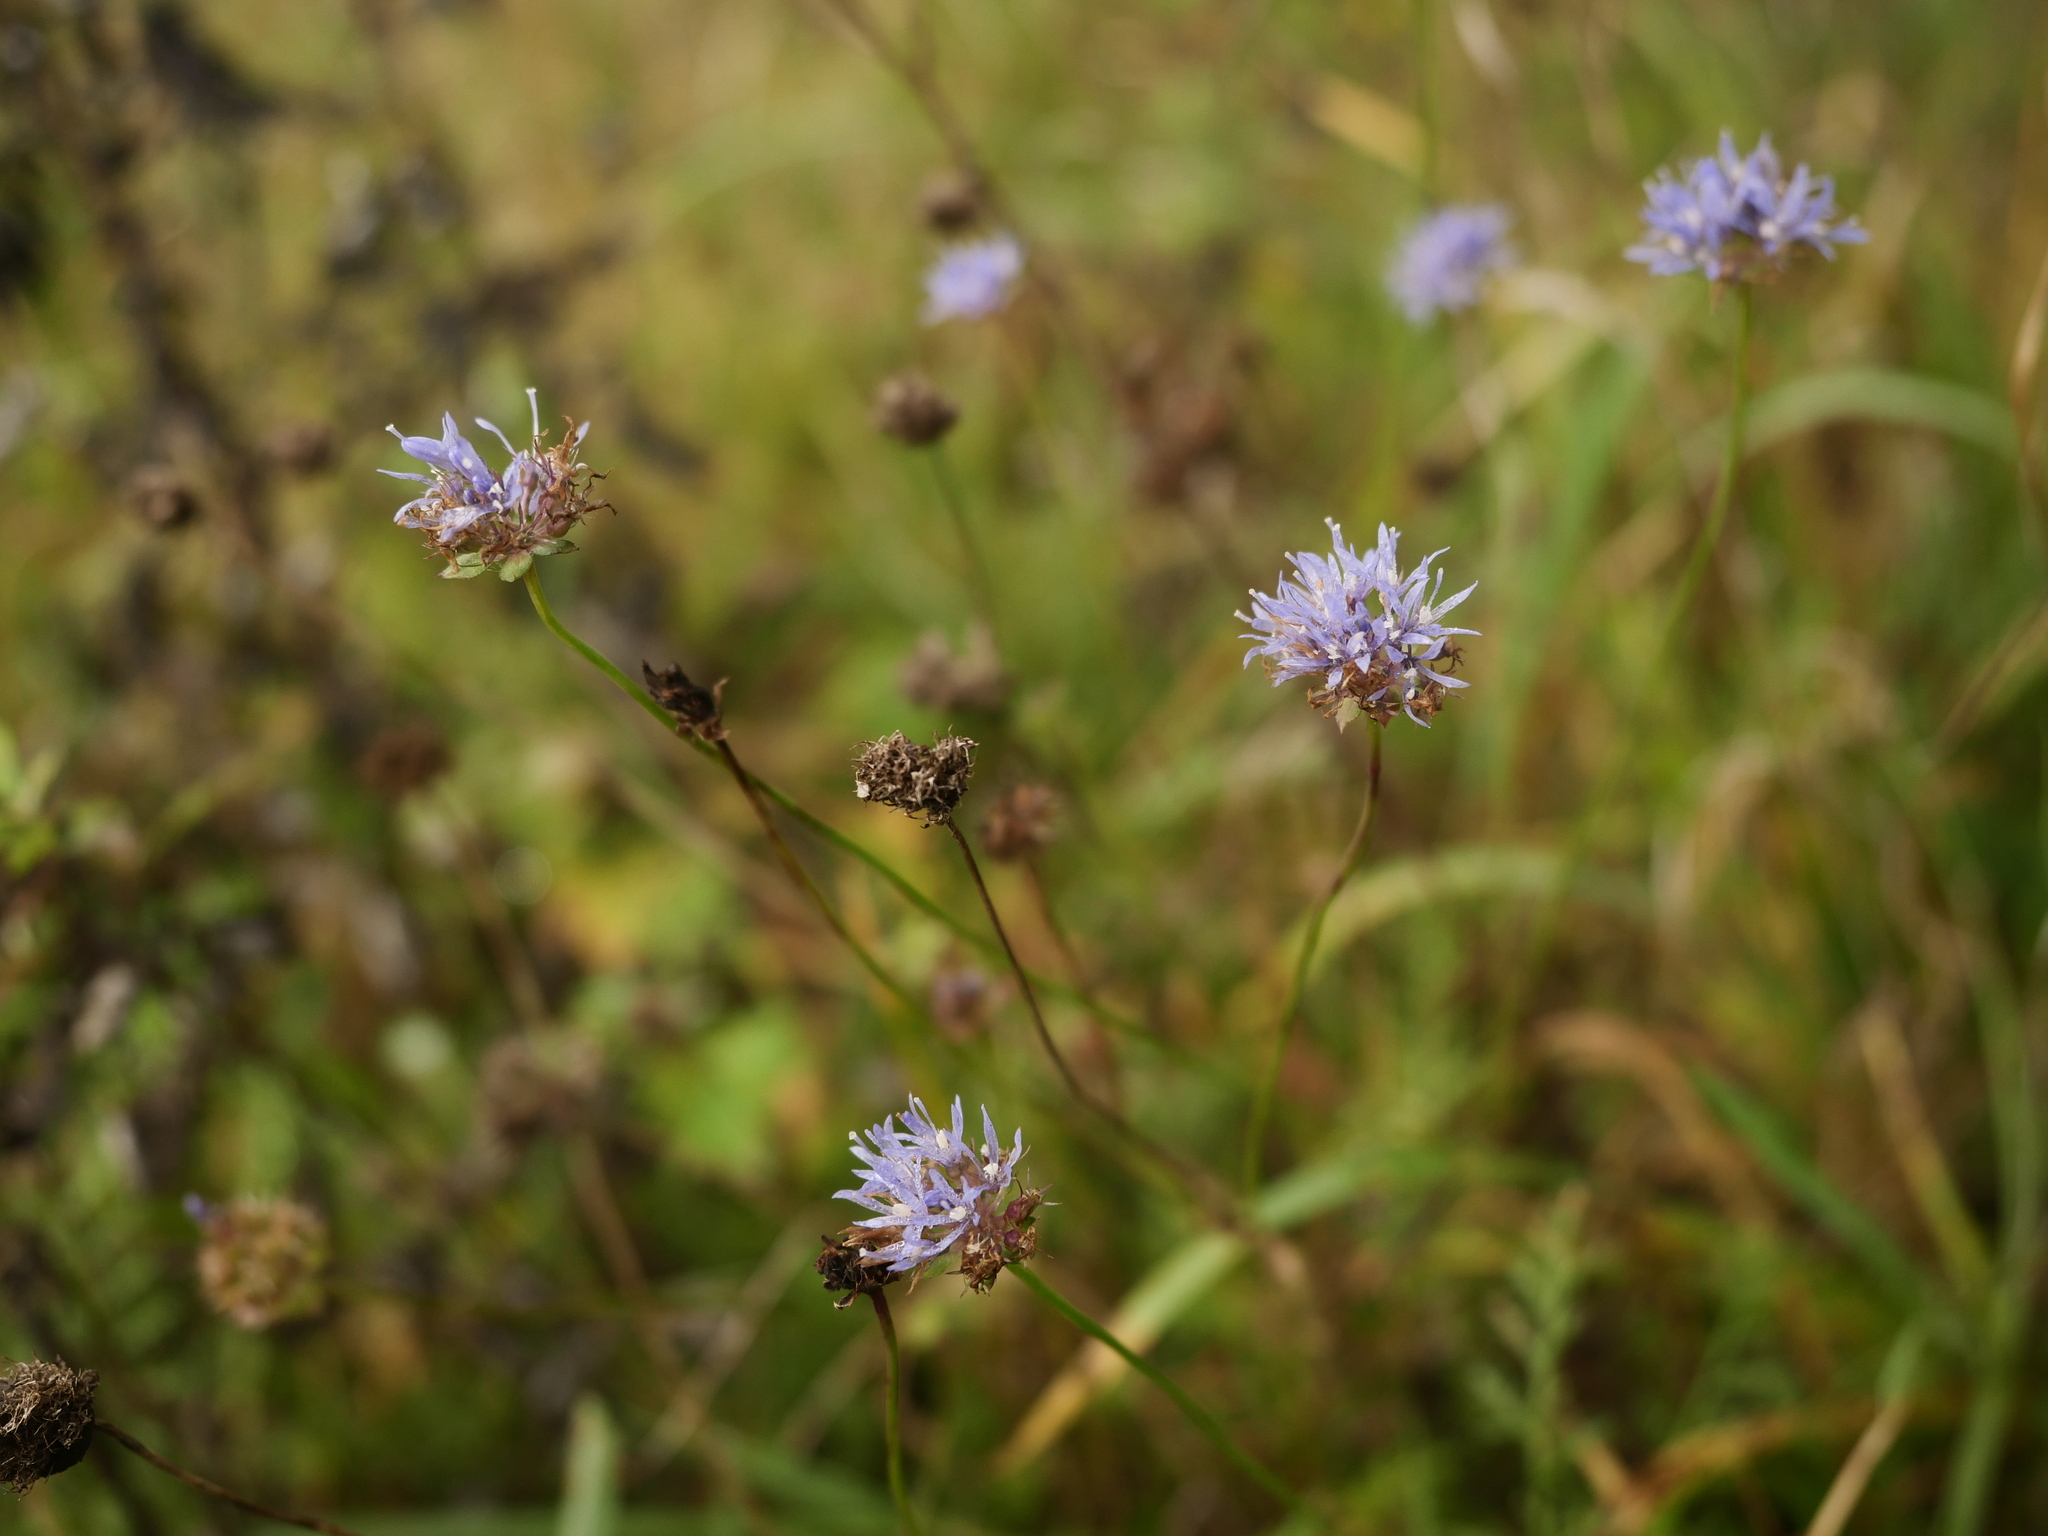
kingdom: Plantae
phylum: Tracheophyta
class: Magnoliopsida
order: Asterales
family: Campanulaceae
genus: Jasione
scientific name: Jasione montana
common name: Sheep's-bit
